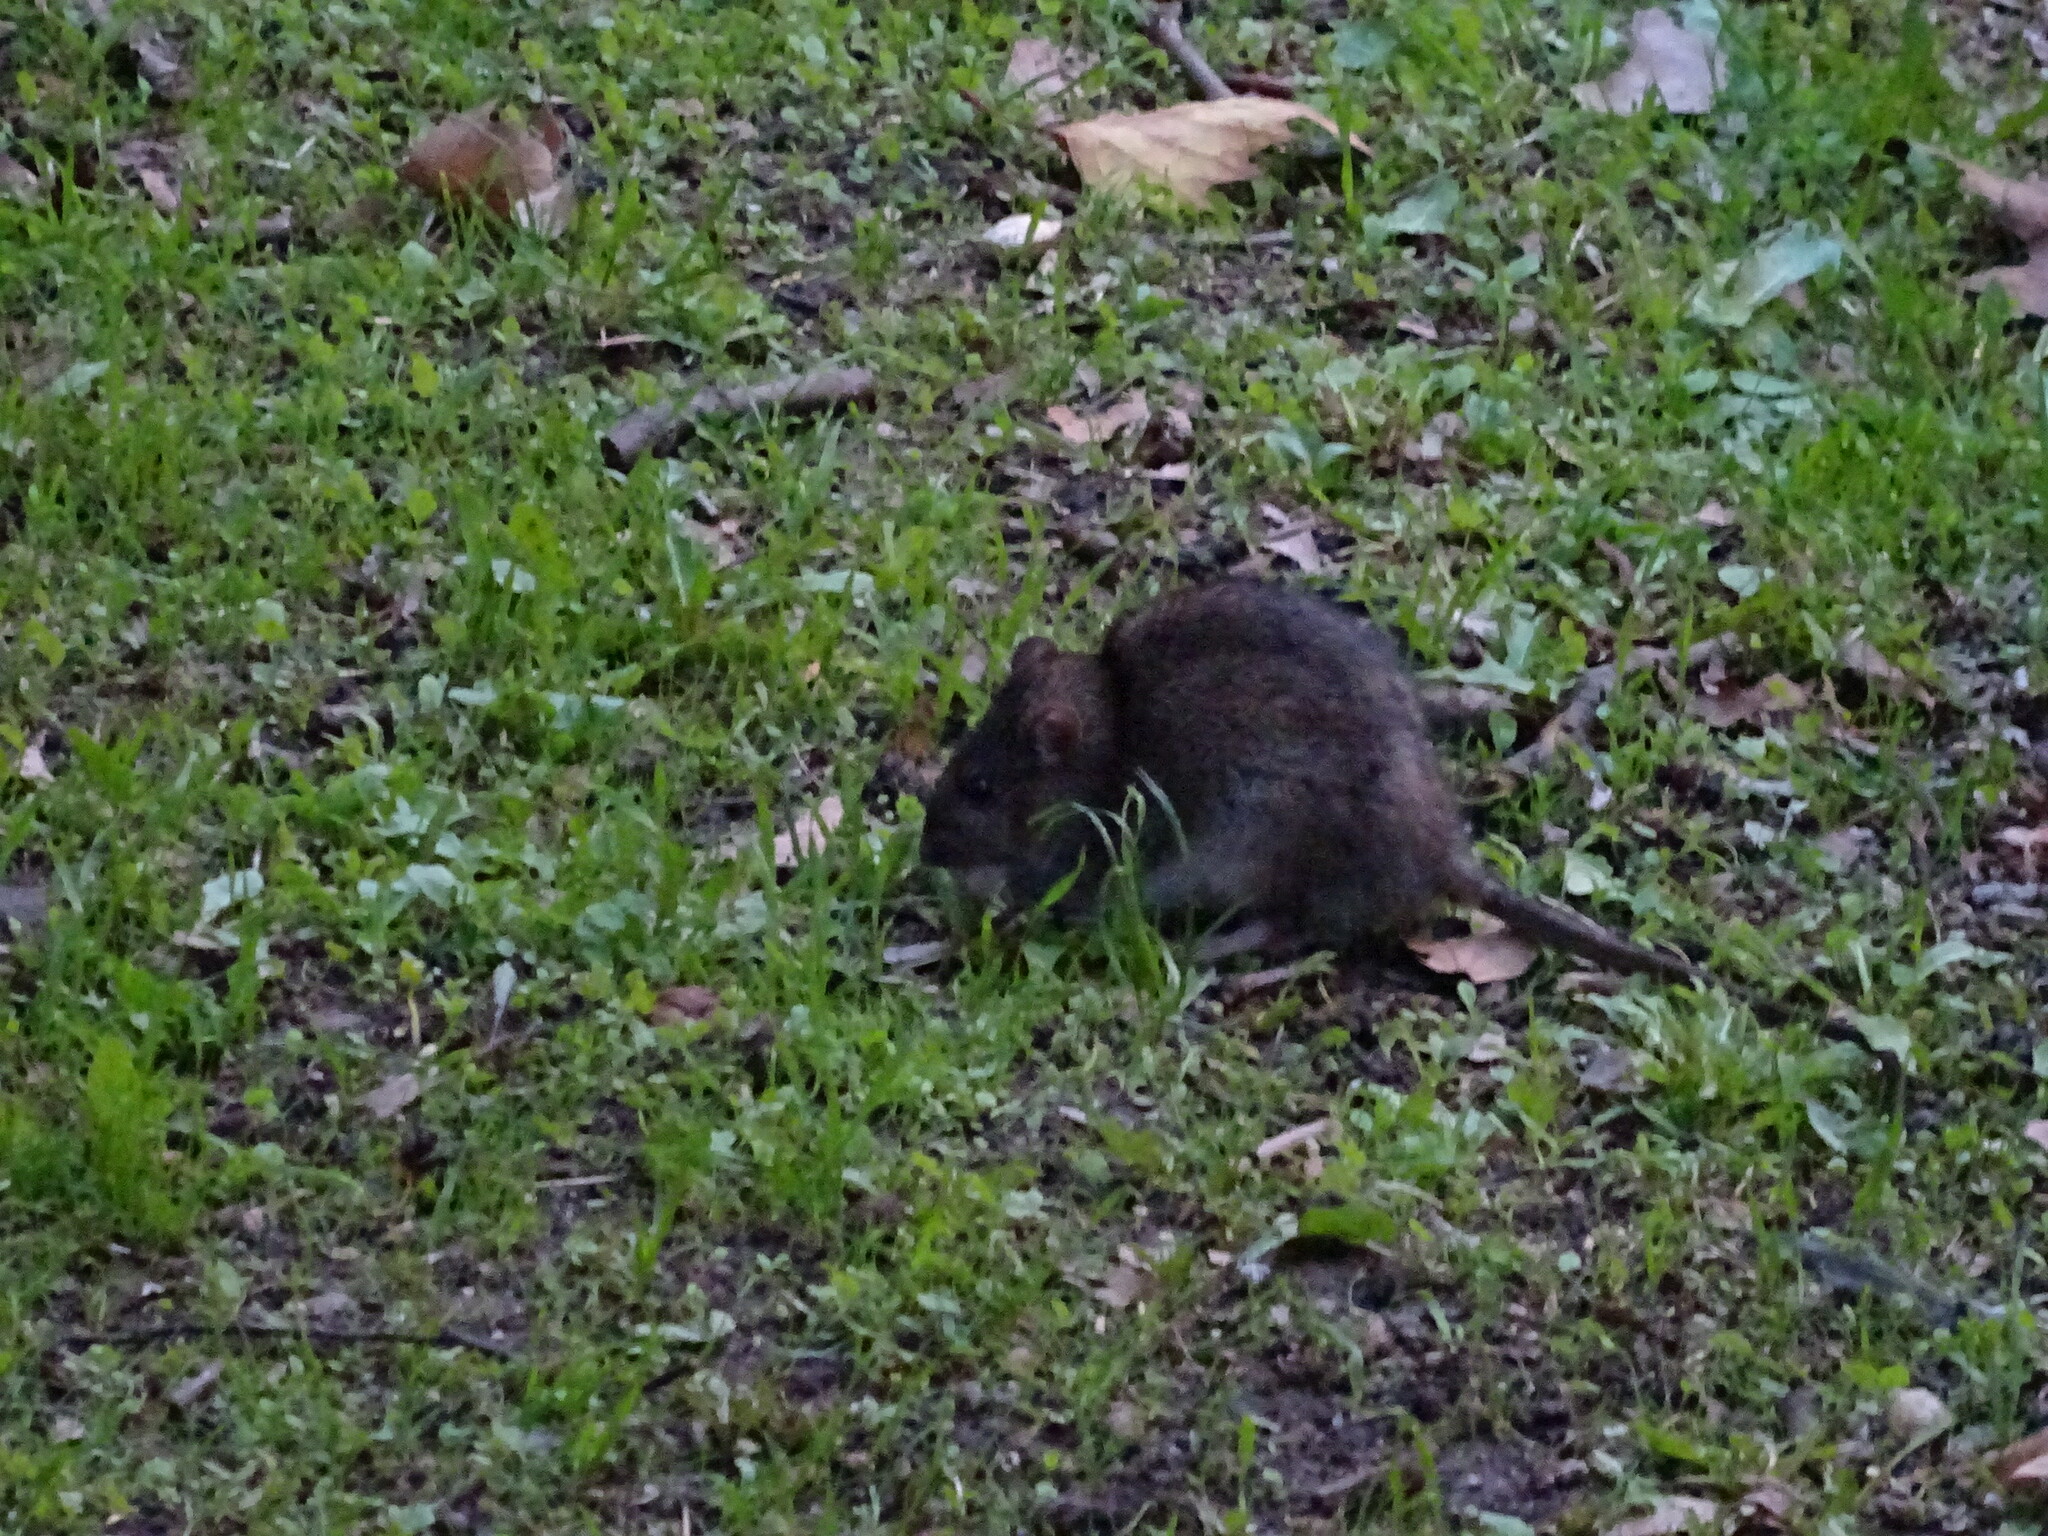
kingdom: Animalia
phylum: Chordata
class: Mammalia
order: Rodentia
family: Muridae
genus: Rattus
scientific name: Rattus norvegicus
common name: Brown rat
